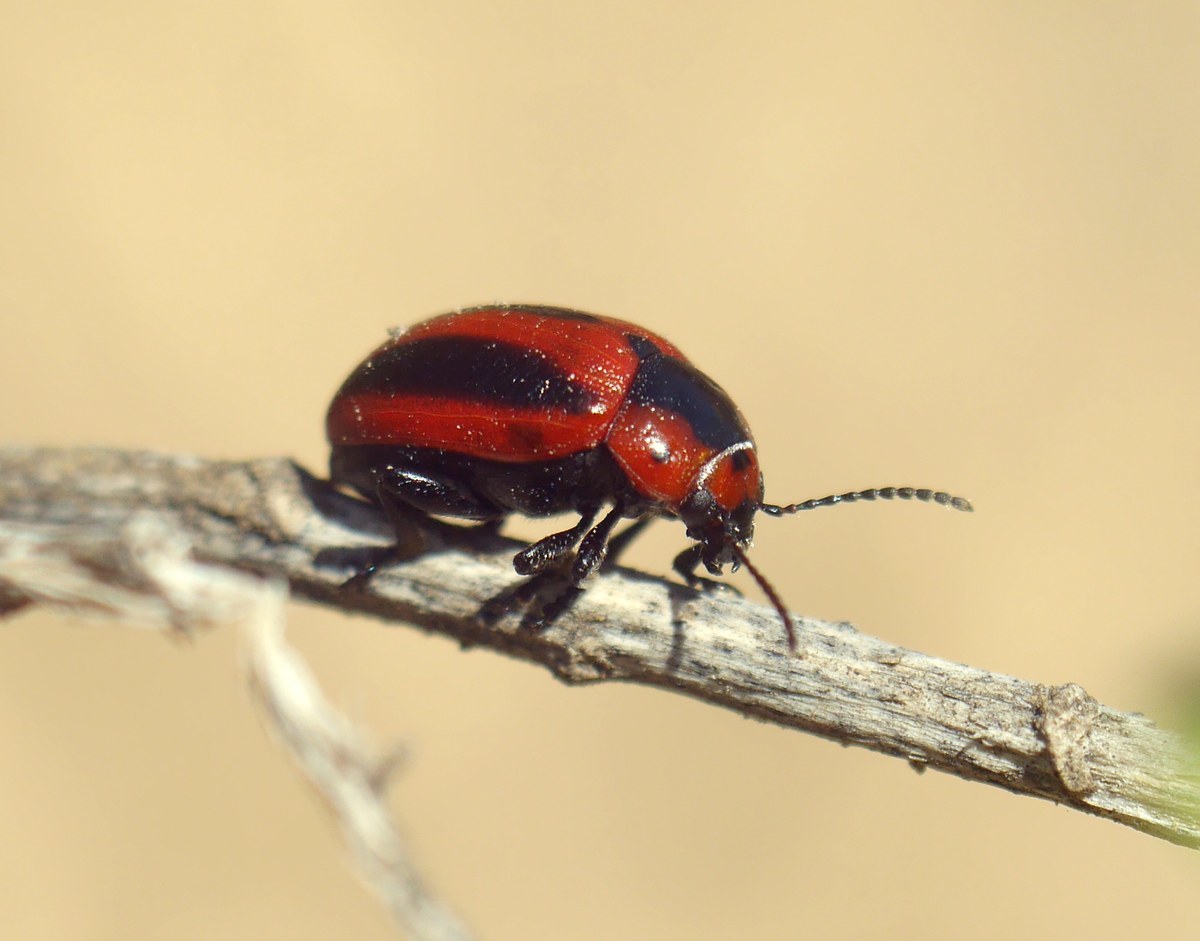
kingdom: Animalia
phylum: Arthropoda
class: Insecta
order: Coleoptera
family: Chrysomelidae
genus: Entomoscelis
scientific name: Entomoscelis adonidis
